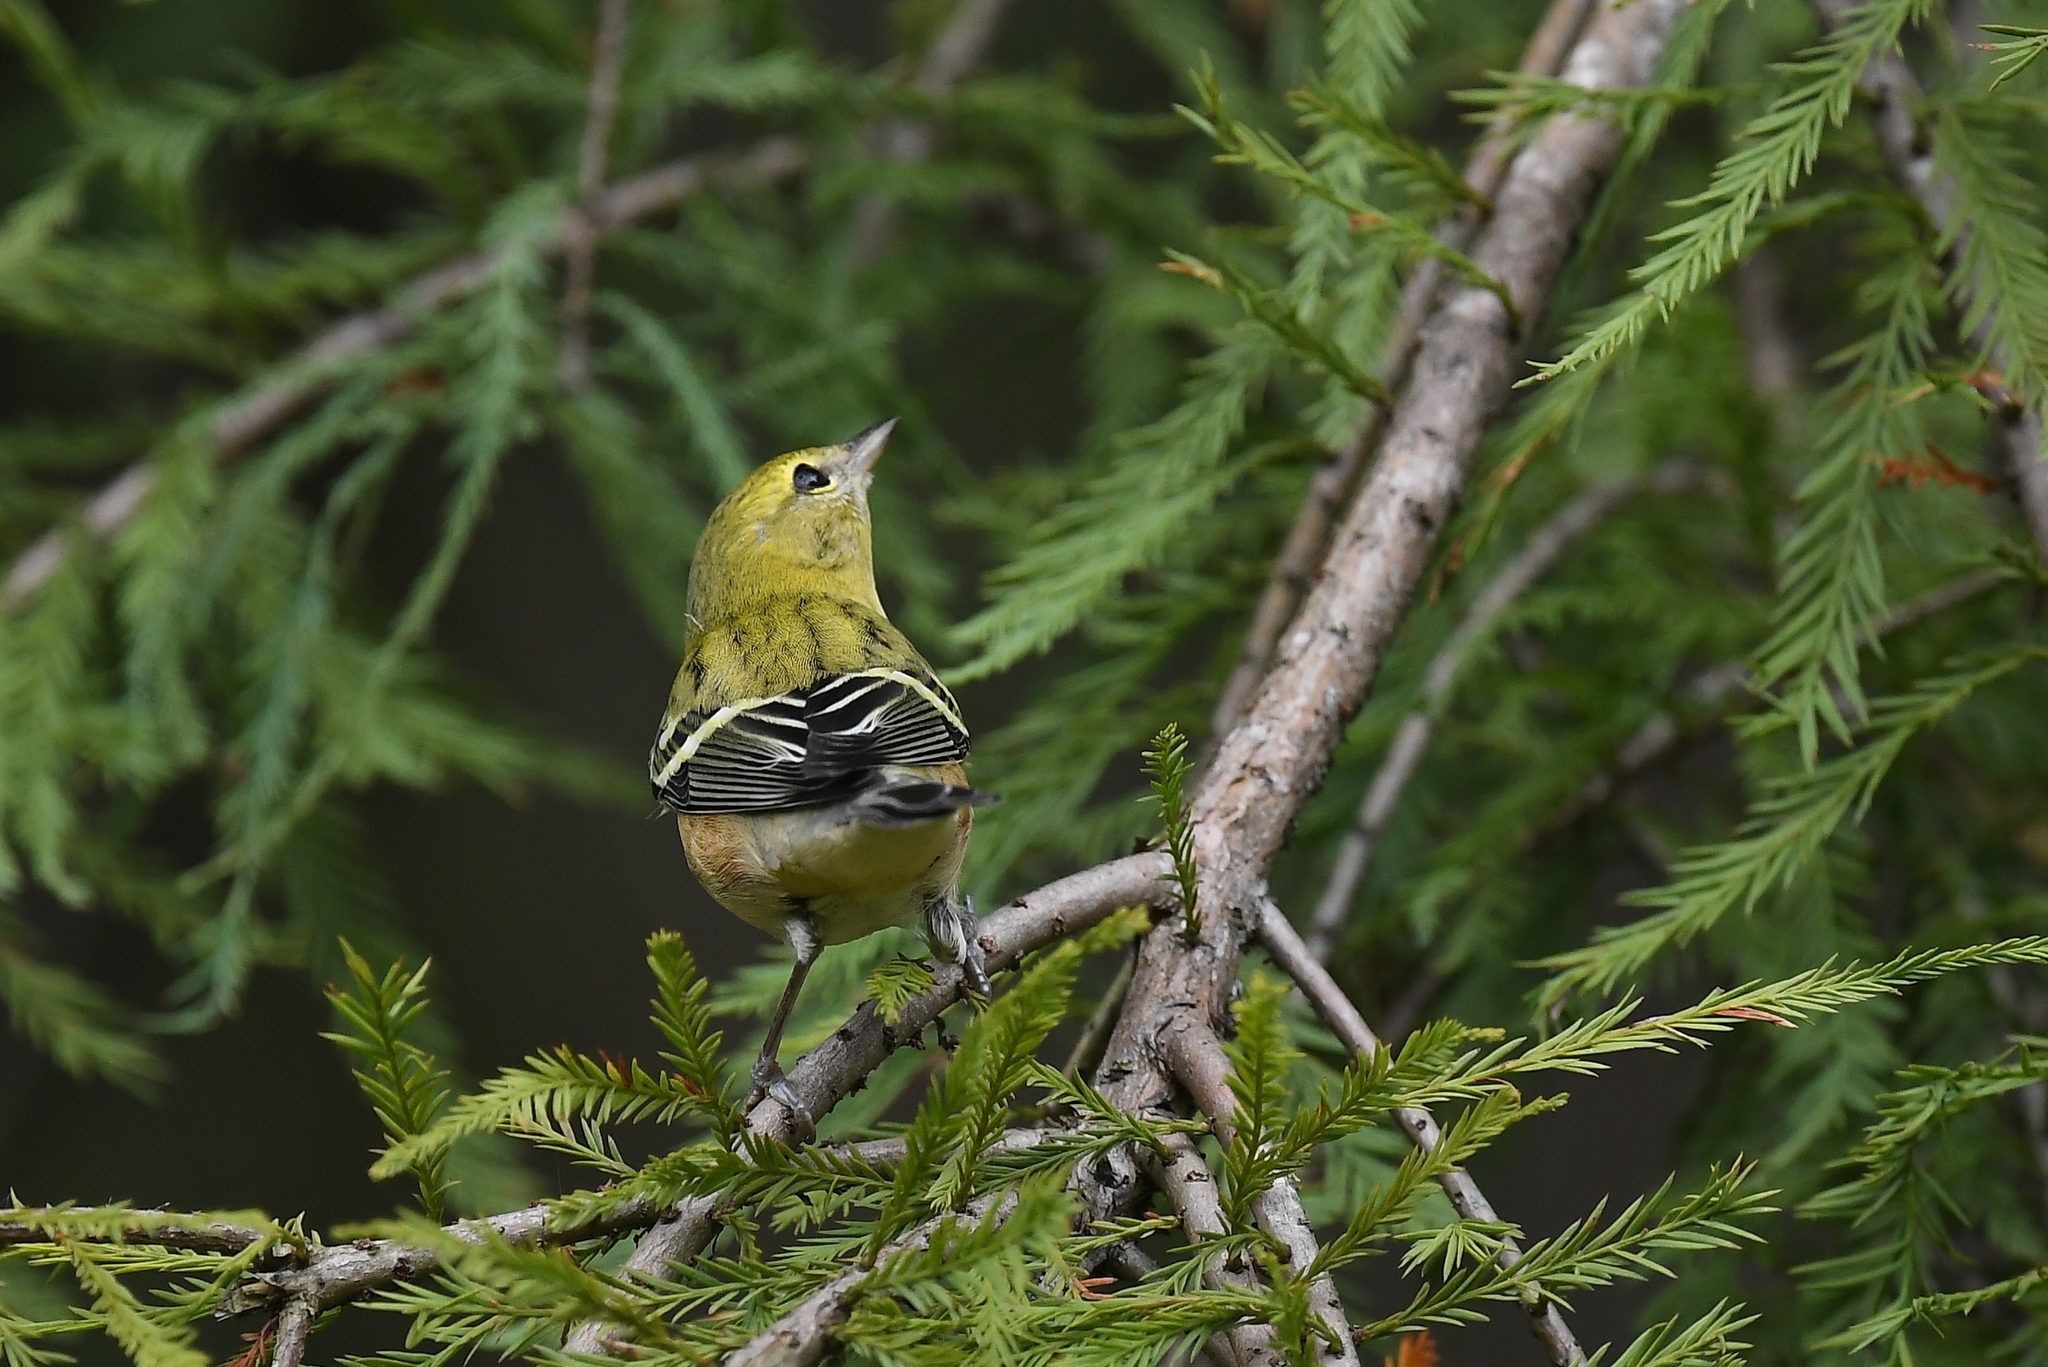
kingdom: Animalia
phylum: Chordata
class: Aves
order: Passeriformes
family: Parulidae
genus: Setophaga
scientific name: Setophaga castanea
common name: Bay-breasted warbler
